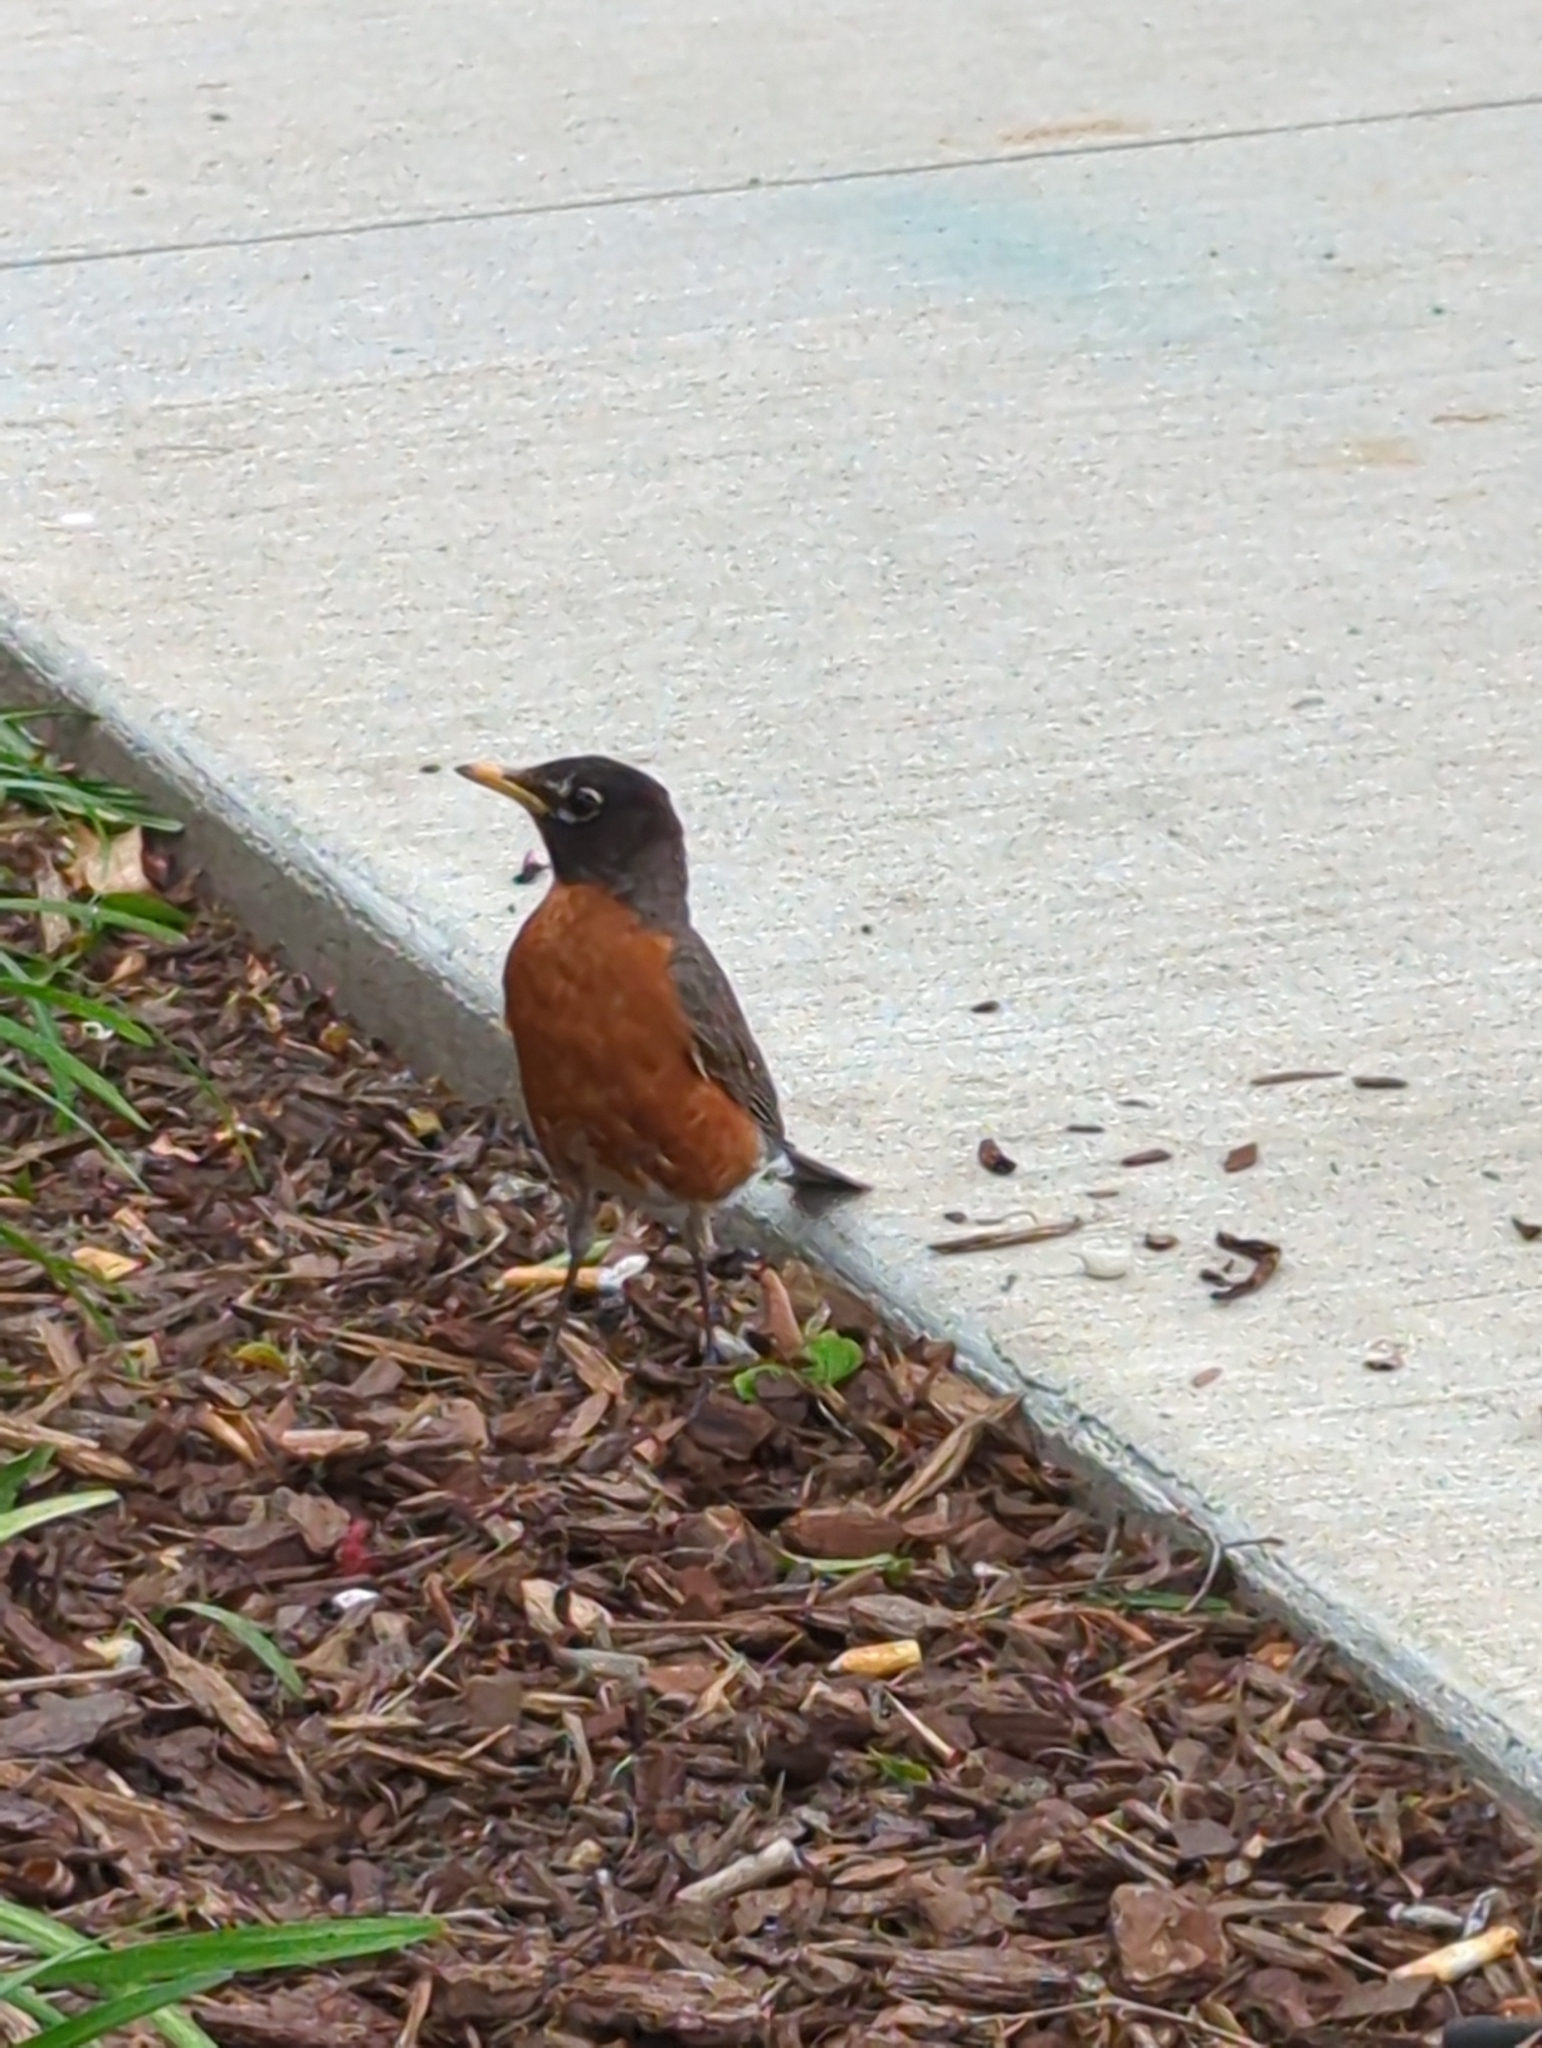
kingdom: Animalia
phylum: Chordata
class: Aves
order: Passeriformes
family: Turdidae
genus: Turdus
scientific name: Turdus migratorius
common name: American robin
